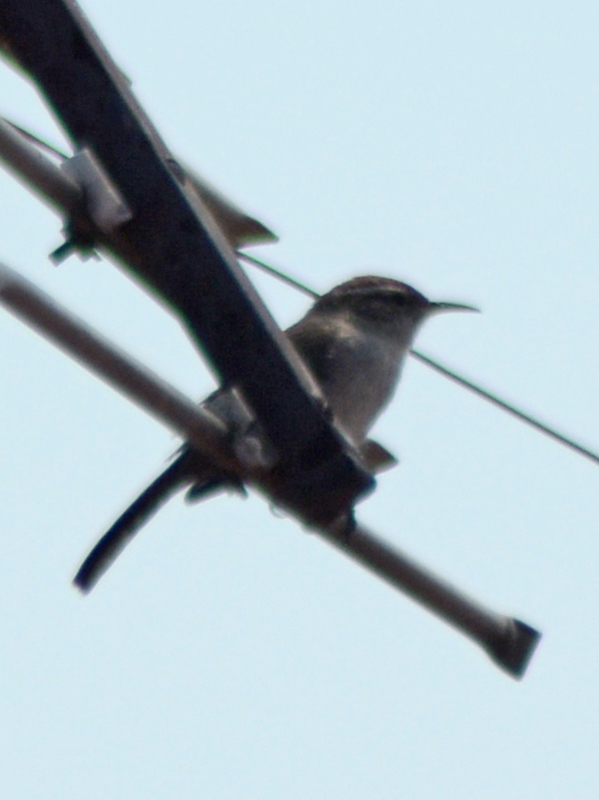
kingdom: Animalia
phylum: Chordata
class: Aves
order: Passeriformes
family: Troglodytidae
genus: Thryomanes
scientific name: Thryomanes bewickii
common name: Bewick's wren
